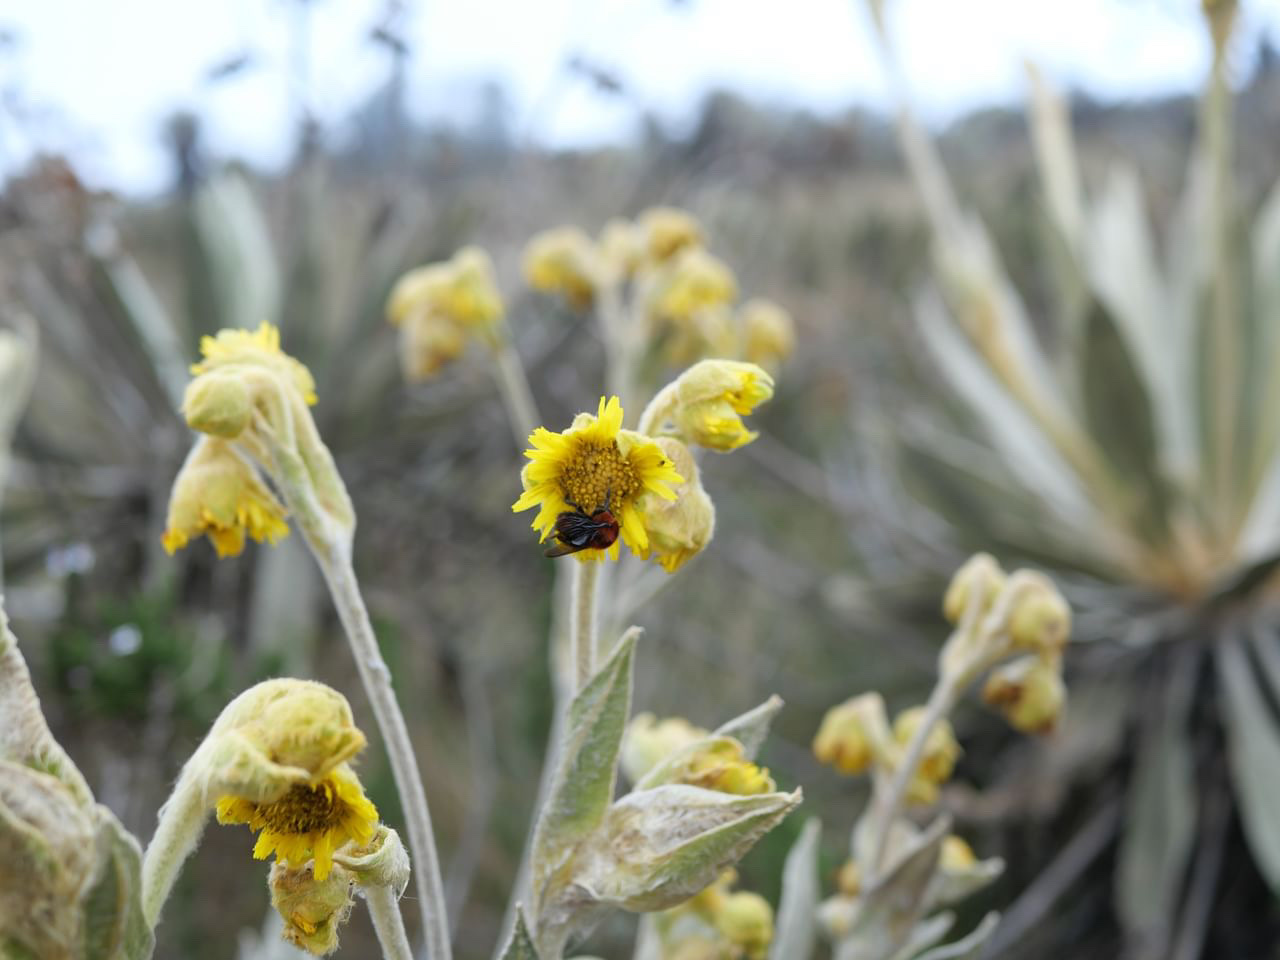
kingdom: Animalia
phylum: Arthropoda
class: Insecta
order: Hymenoptera
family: Apidae
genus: Bombus
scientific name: Bombus rubicundus
